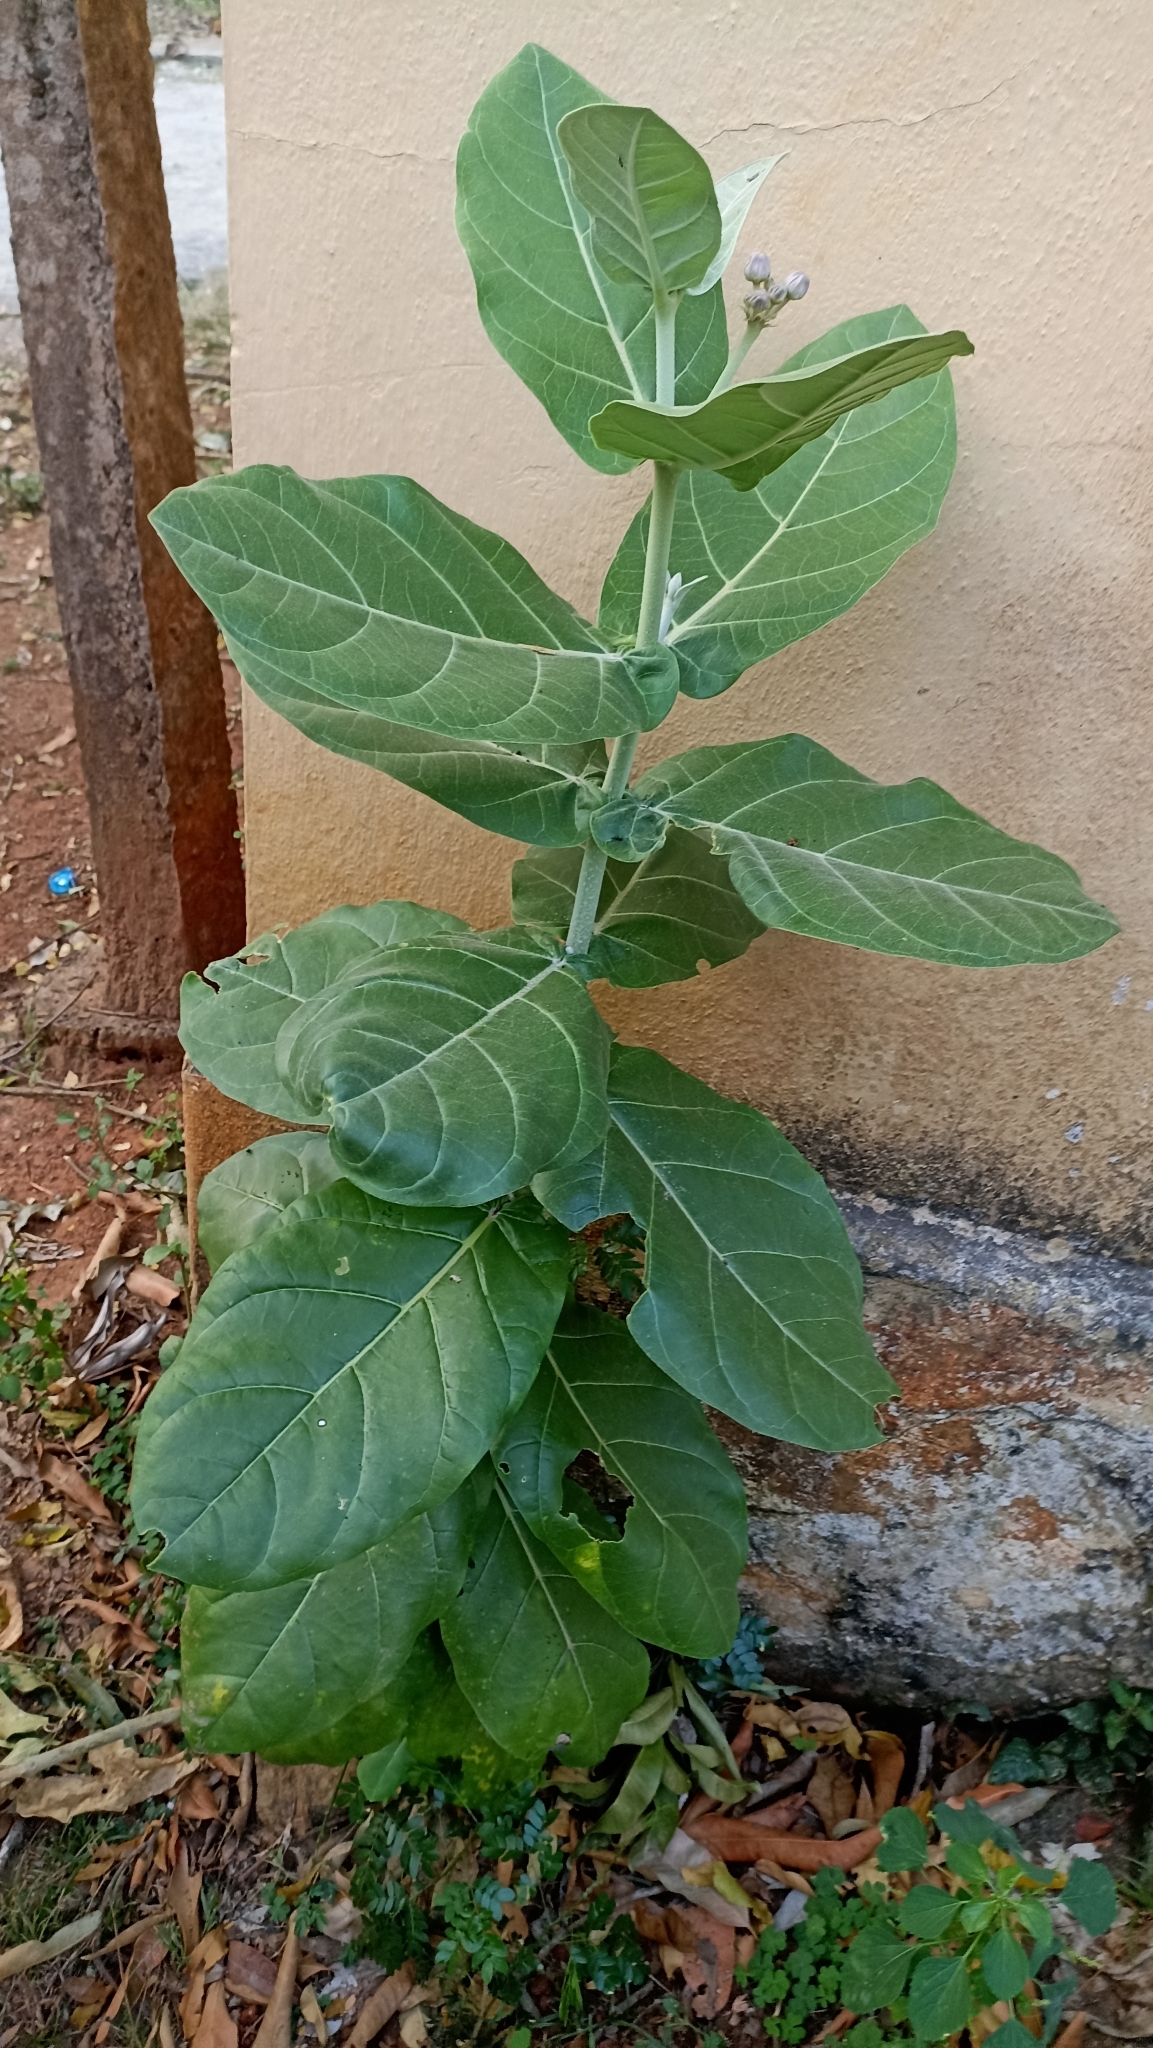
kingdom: Plantae
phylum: Tracheophyta
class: Magnoliopsida
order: Gentianales
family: Apocynaceae
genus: Calotropis
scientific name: Calotropis gigantea
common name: Crown flower
